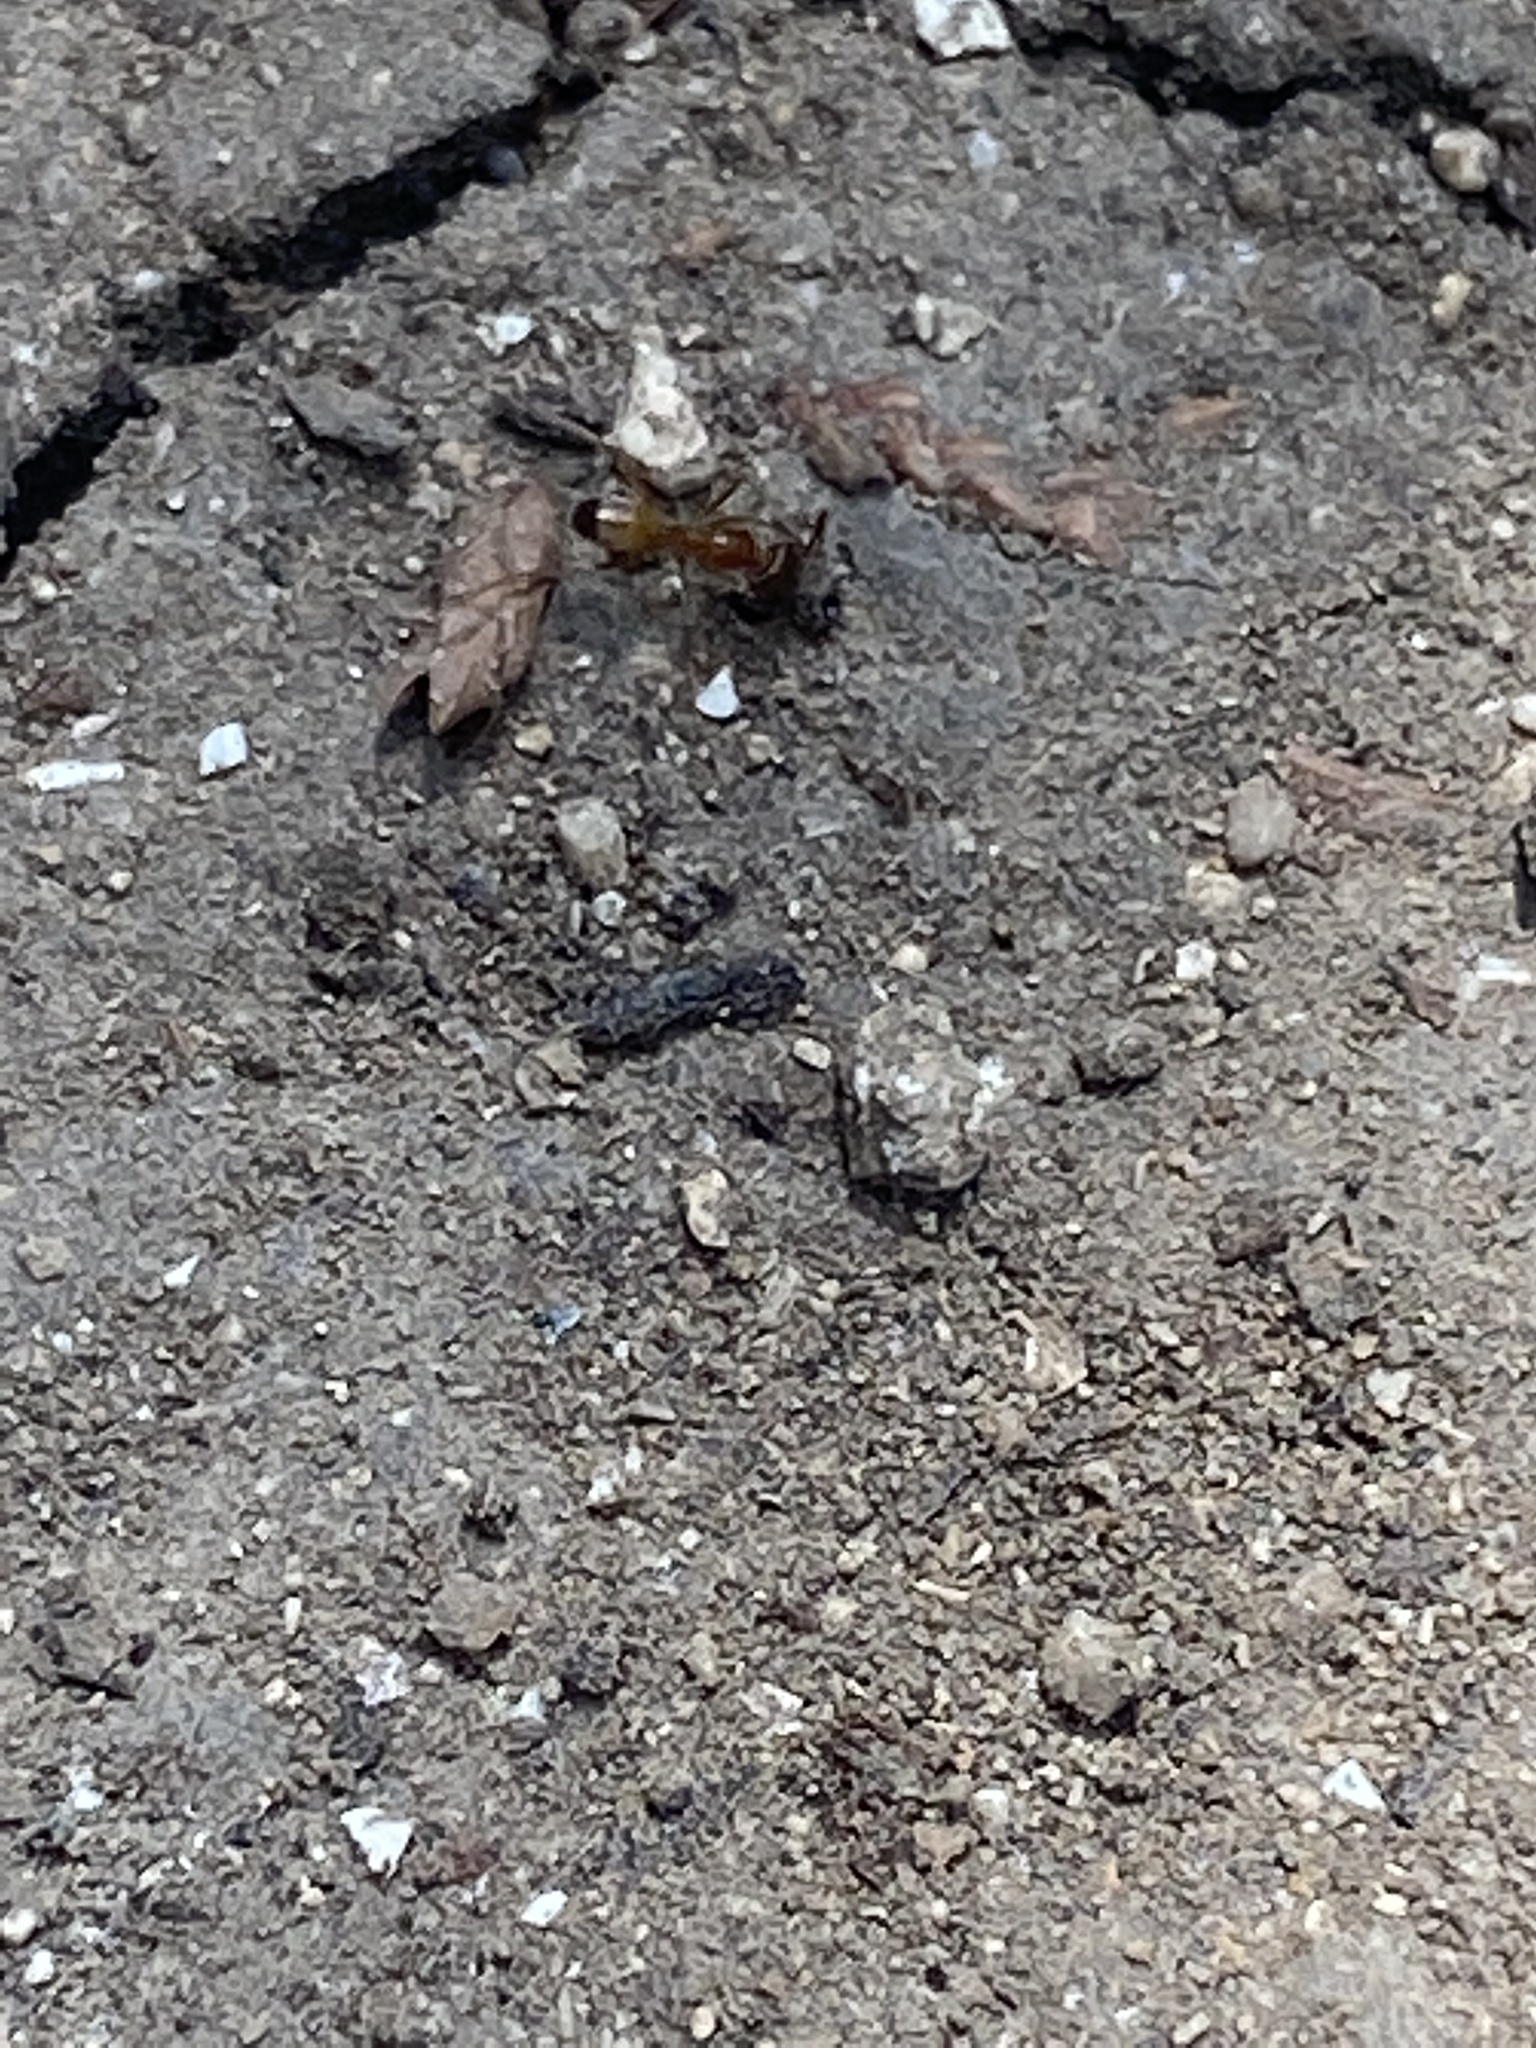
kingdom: Animalia
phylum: Arthropoda
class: Insecta
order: Hymenoptera
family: Formicidae
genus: Dorymyrmex
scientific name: Dorymyrmex flavus
